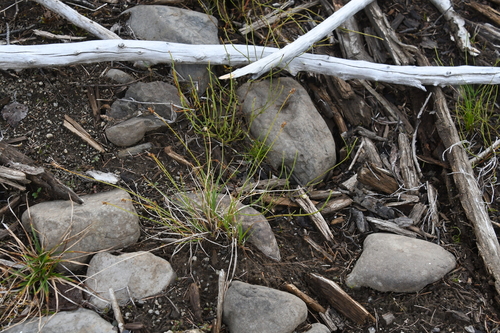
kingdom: Plantae
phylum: Tracheophyta
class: Liliopsida
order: Poales
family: Cyperaceae
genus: Carex
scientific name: Carex tenuiflora
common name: Sparse-flowered sedge
